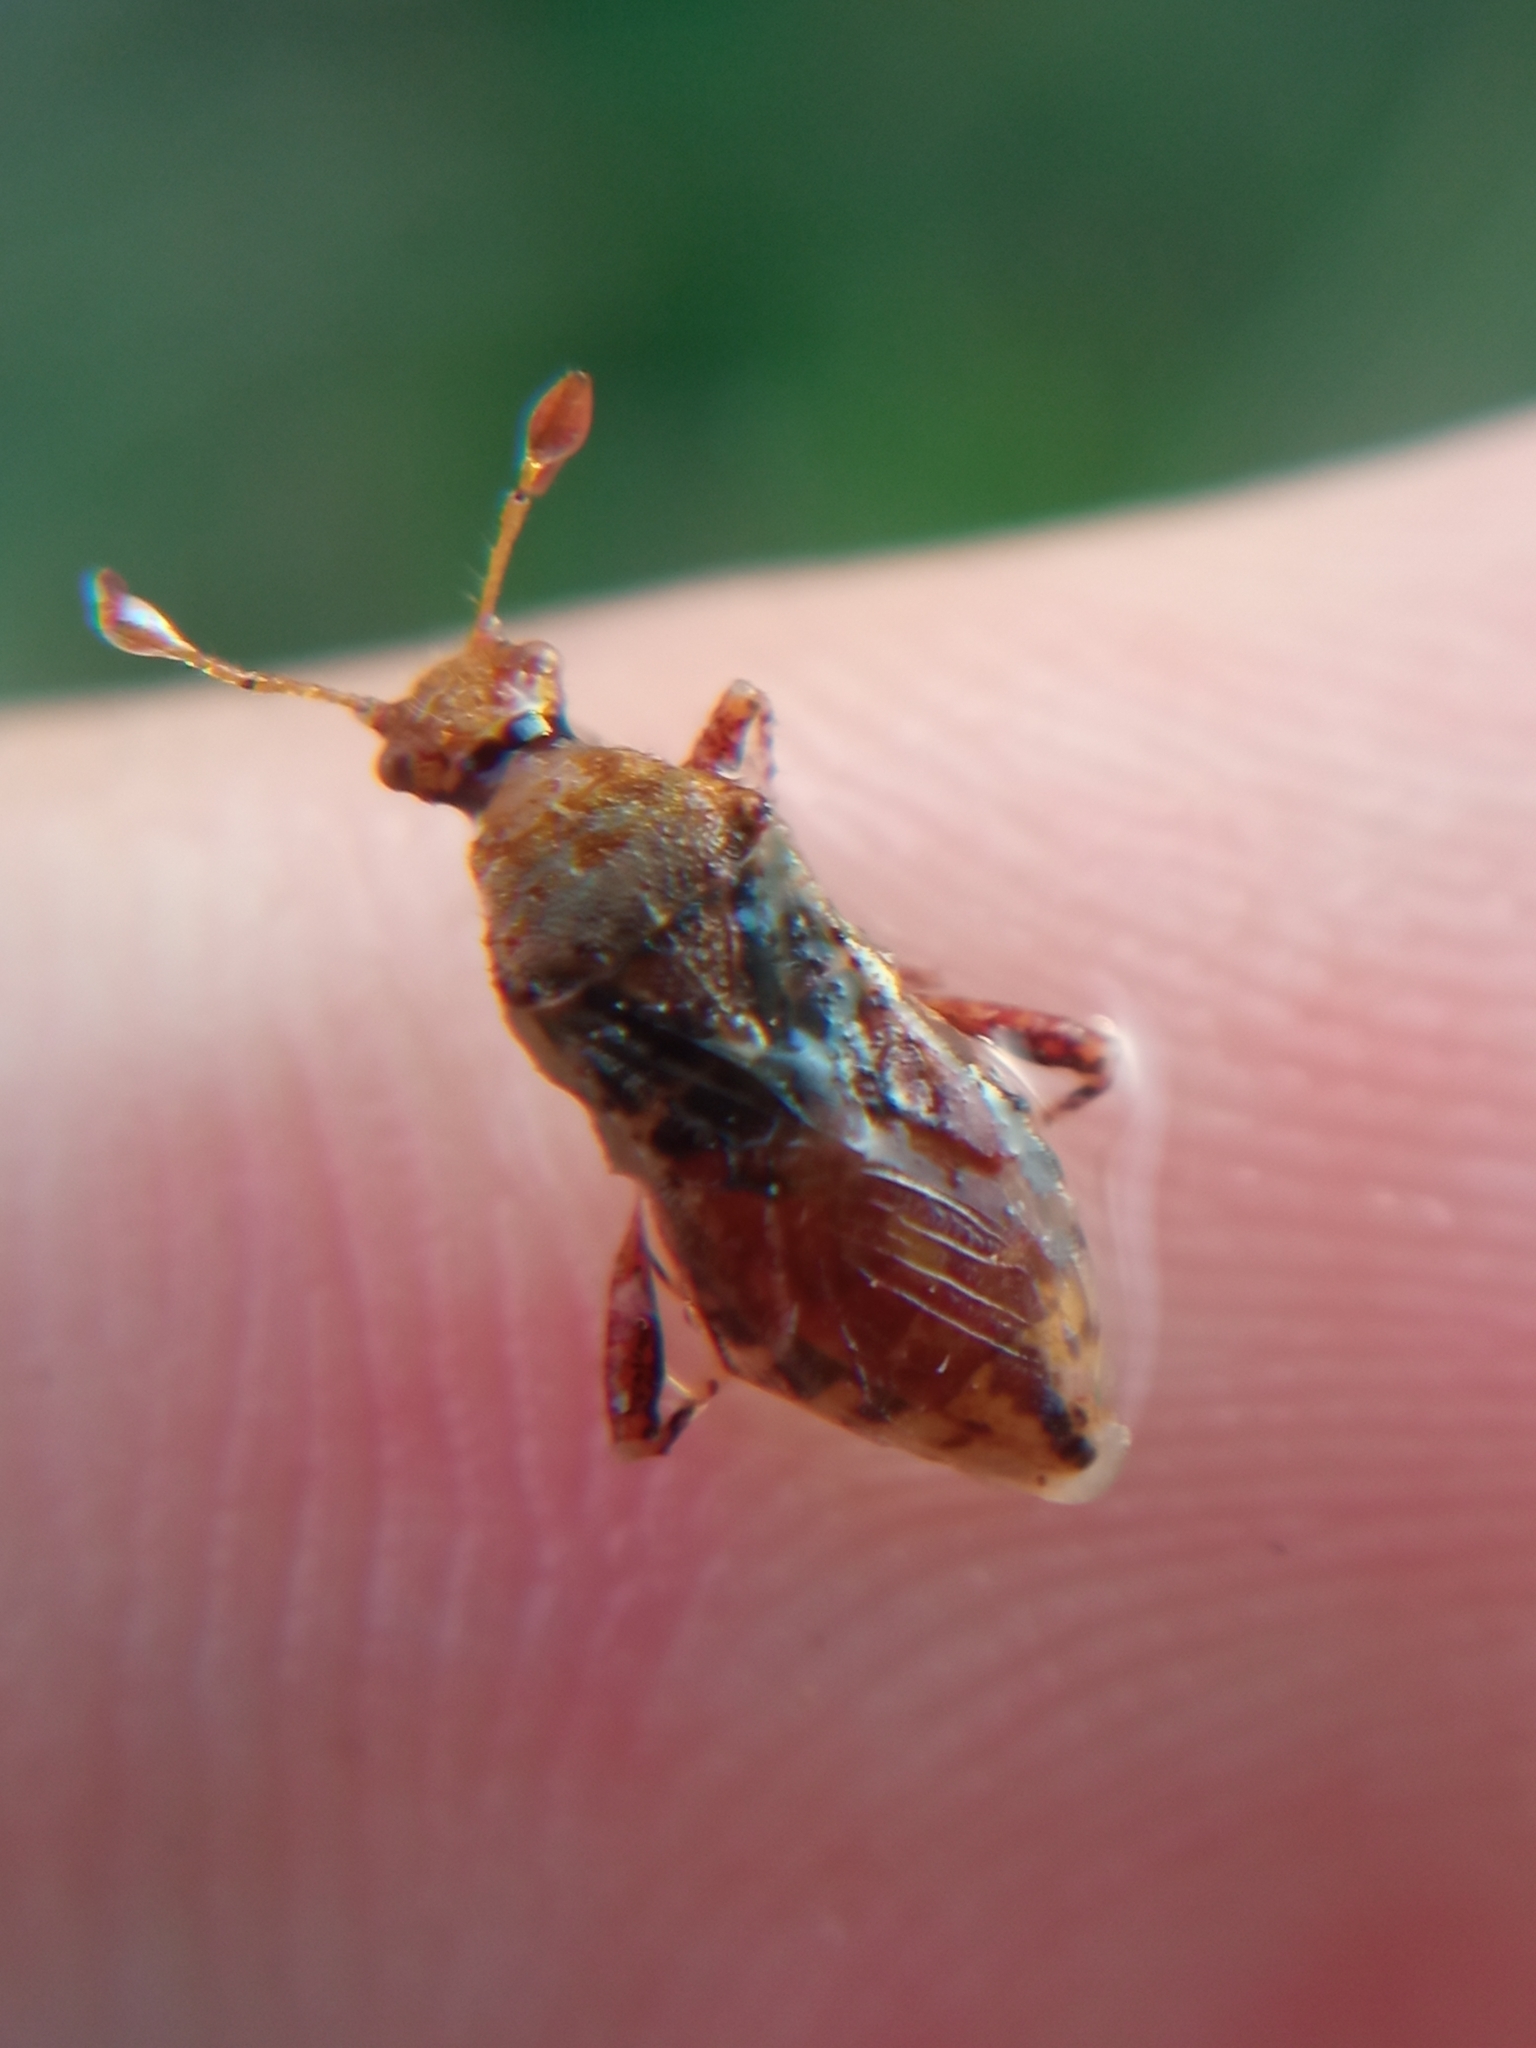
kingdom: Animalia
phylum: Arthropoda
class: Insecta
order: Hemiptera
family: Rhopalidae
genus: Rhopalus
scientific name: Rhopalus subrufus
